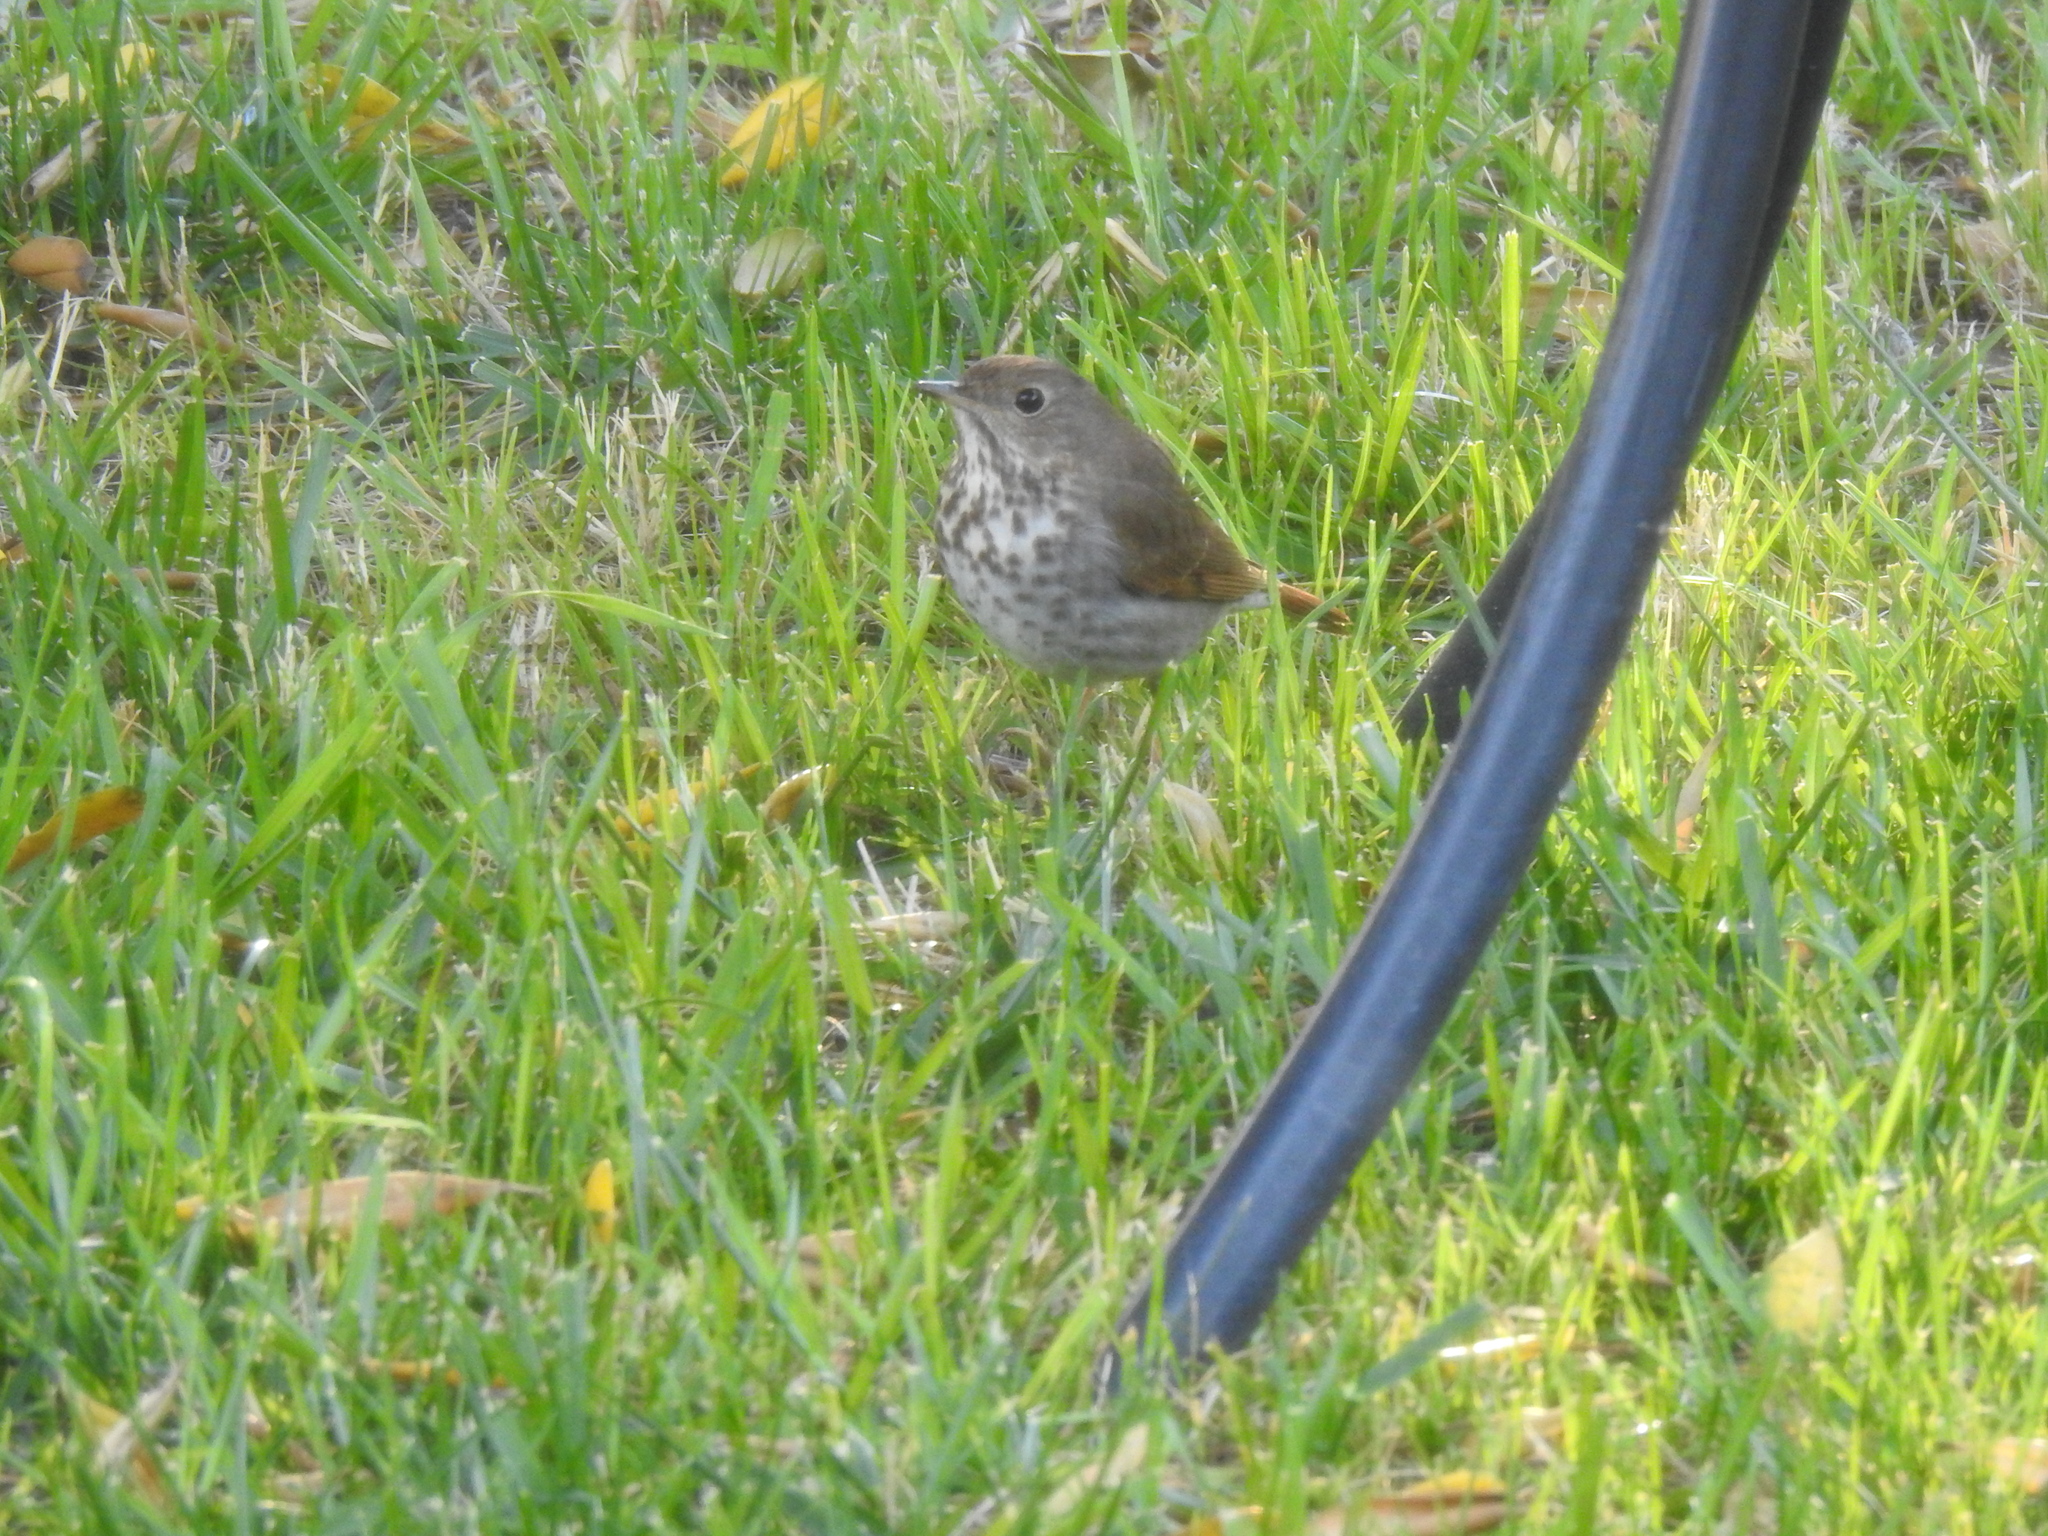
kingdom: Animalia
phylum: Chordata
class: Aves
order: Passeriformes
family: Turdidae
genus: Catharus
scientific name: Catharus guttatus
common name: Hermit thrush
